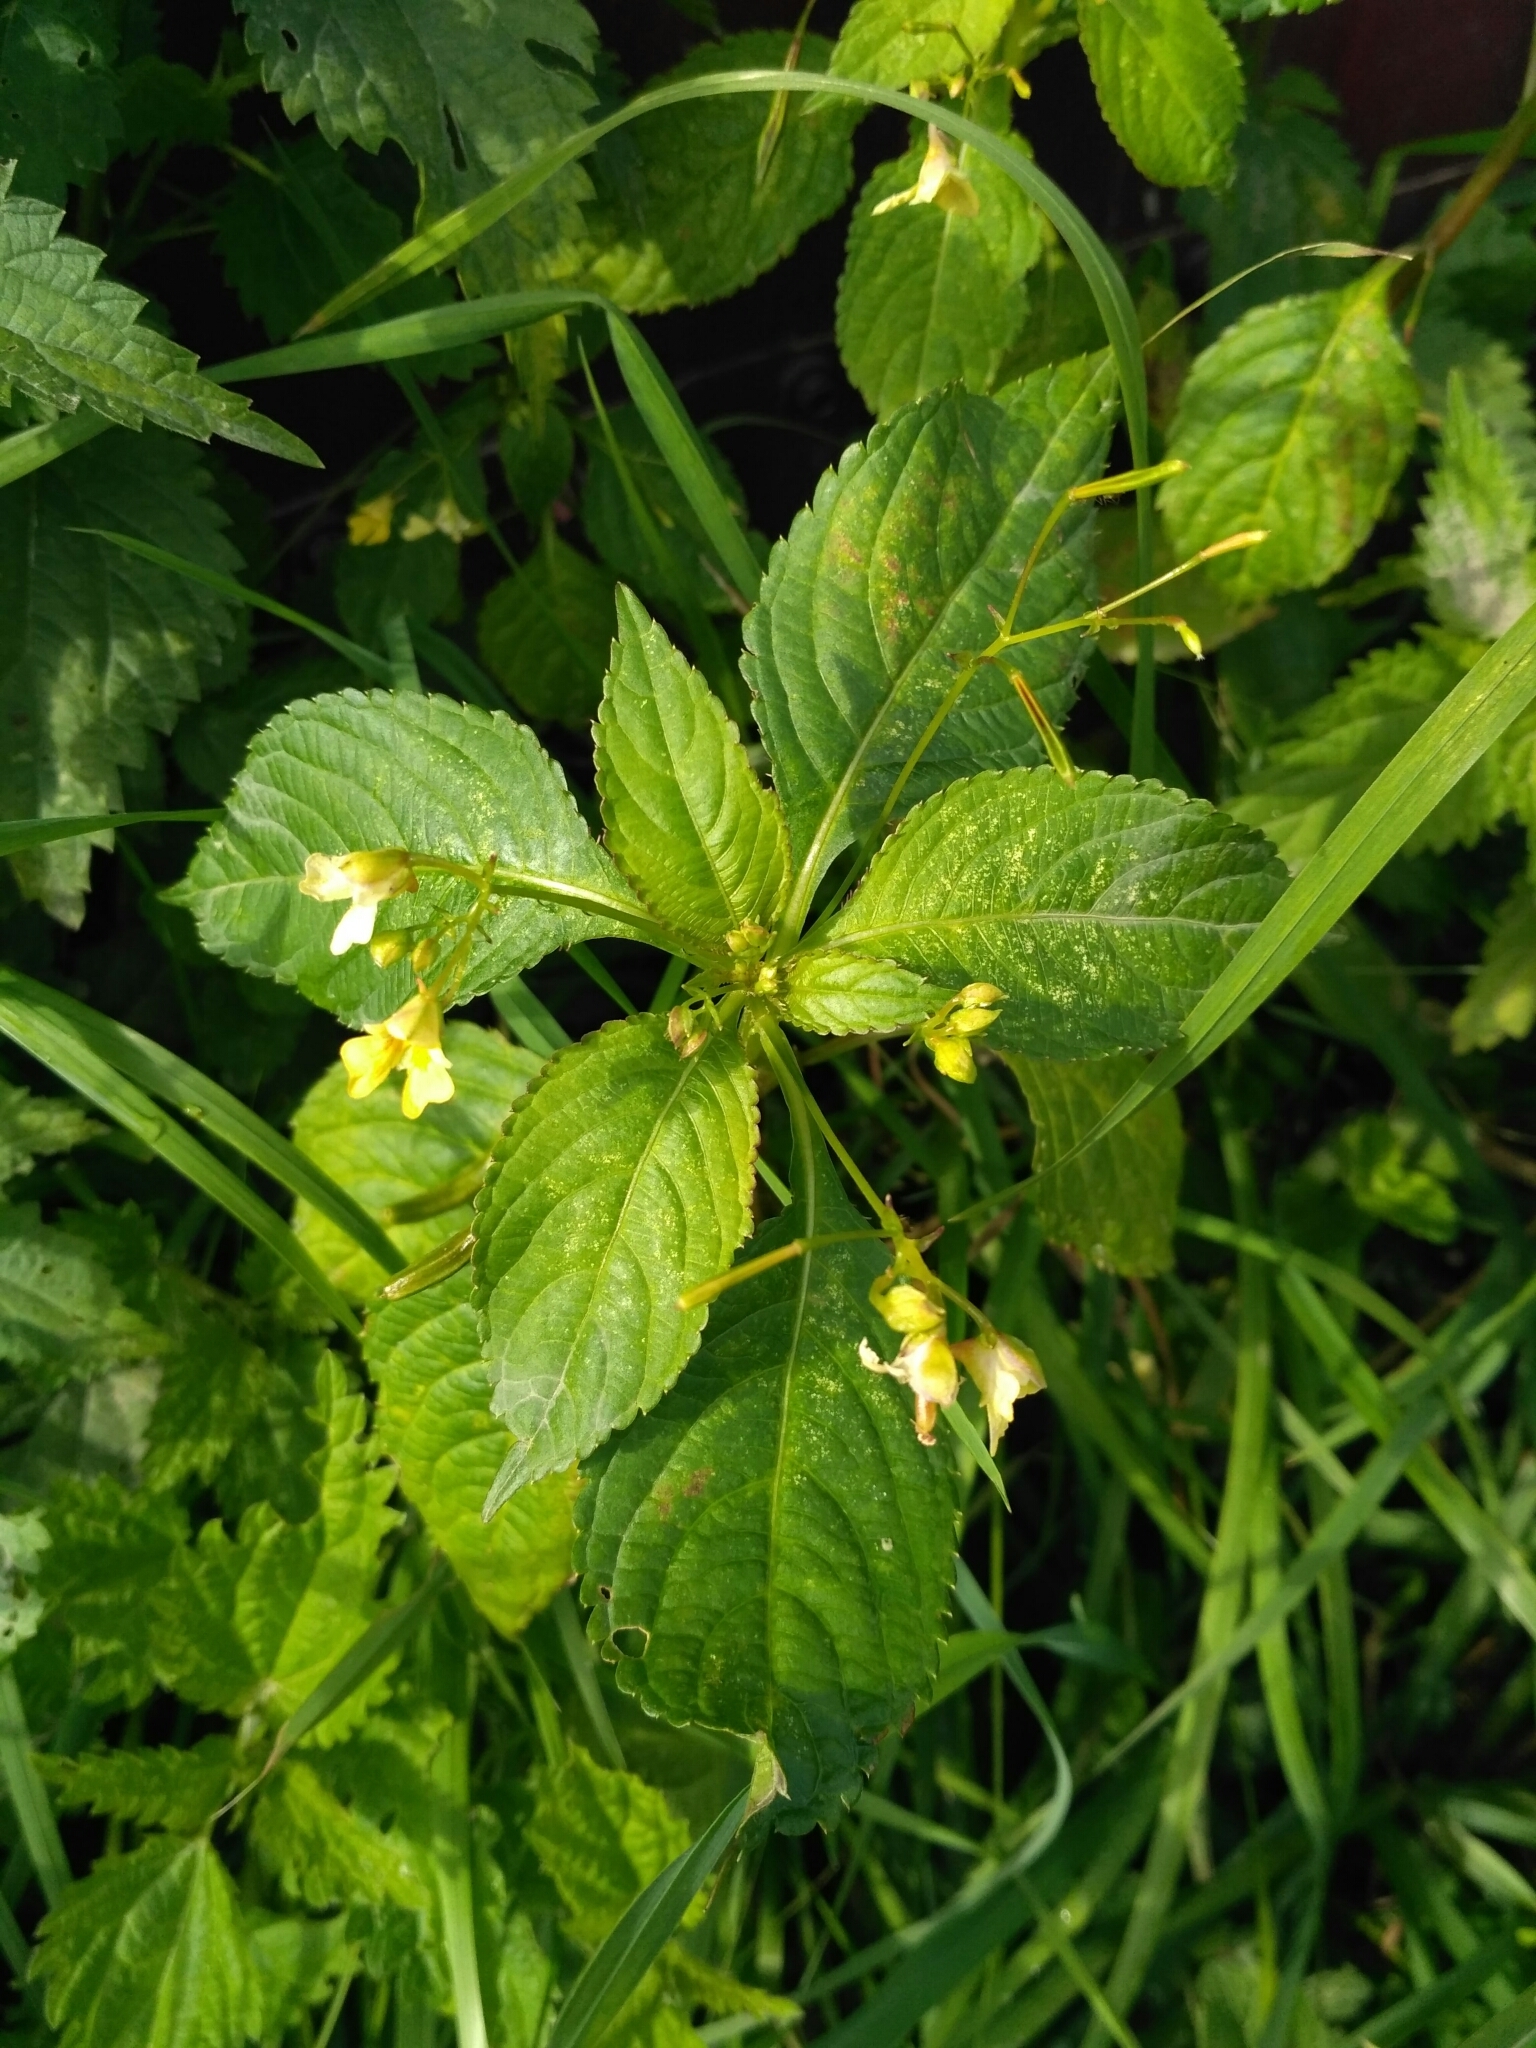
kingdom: Plantae
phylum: Tracheophyta
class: Magnoliopsida
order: Ericales
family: Balsaminaceae
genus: Impatiens
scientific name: Impatiens parviflora
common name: Small balsam
